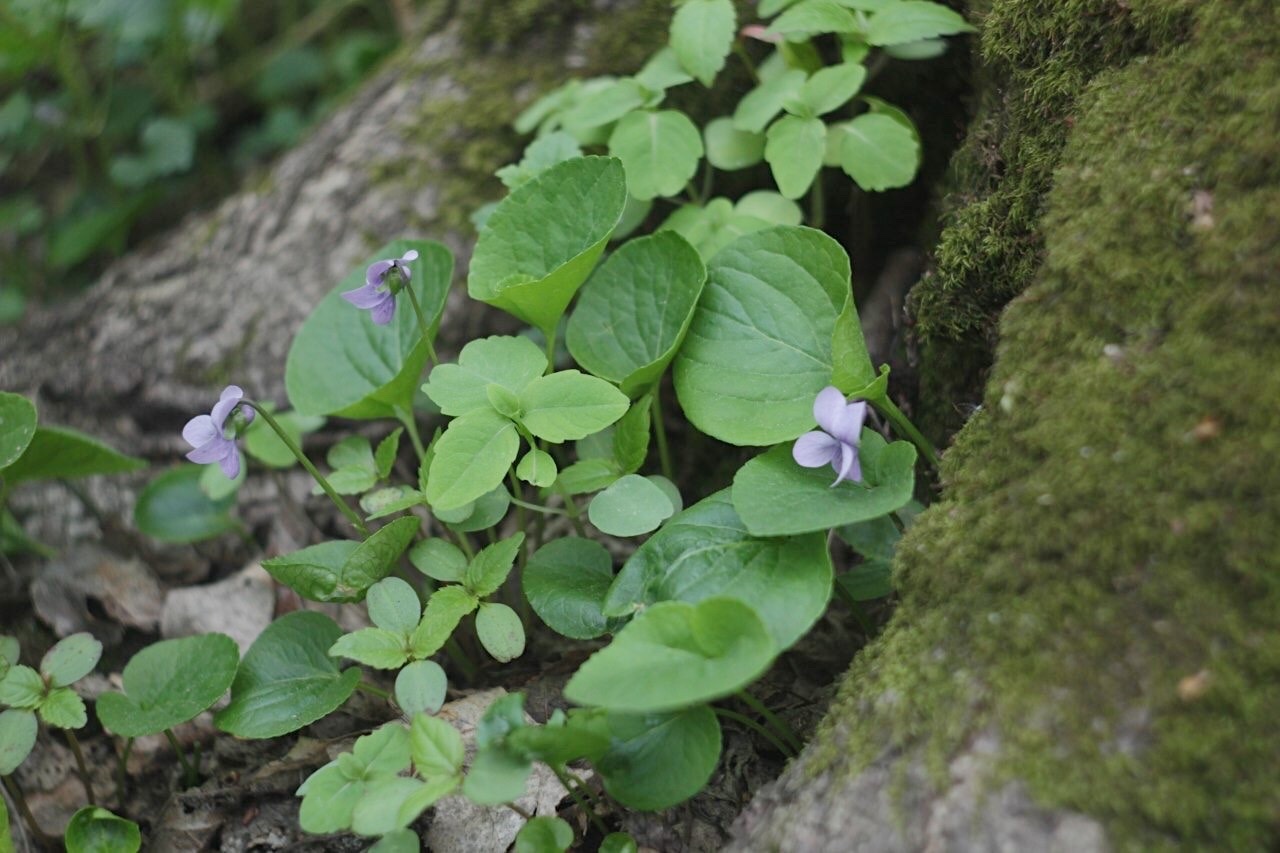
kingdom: Plantae
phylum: Tracheophyta
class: Magnoliopsida
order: Malpighiales
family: Violaceae
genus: Viola
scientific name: Viola palustris
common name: Marsh violet
